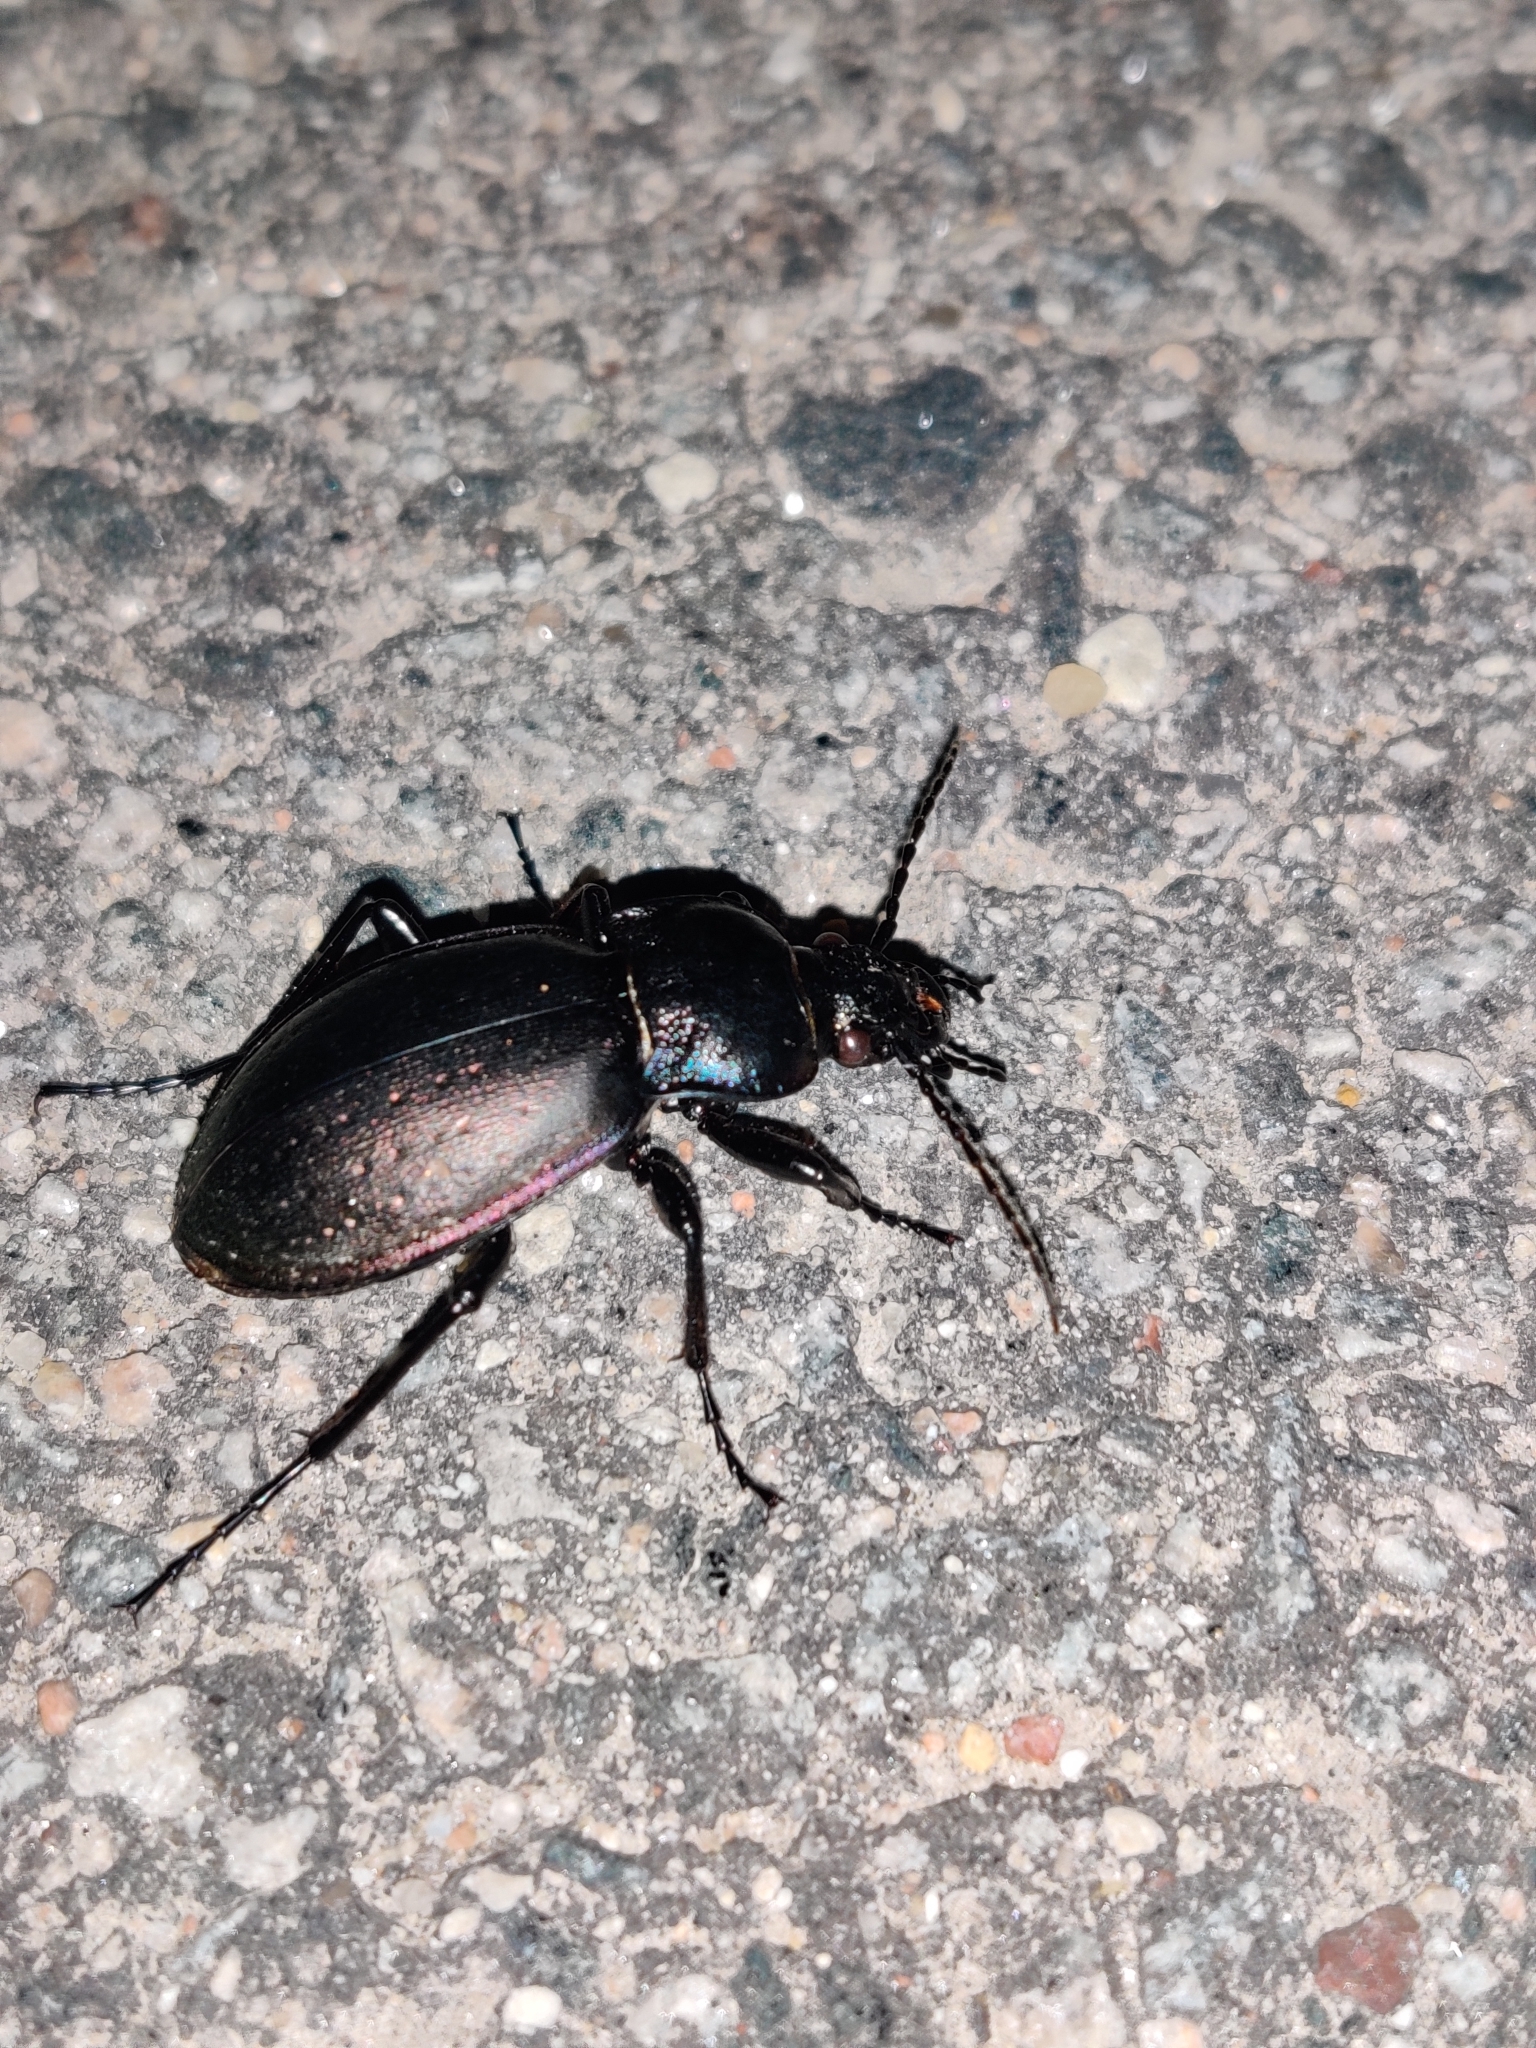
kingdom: Animalia
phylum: Arthropoda
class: Insecta
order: Coleoptera
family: Carabidae
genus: Carabus
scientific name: Carabus nemoralis
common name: European ground beetle
